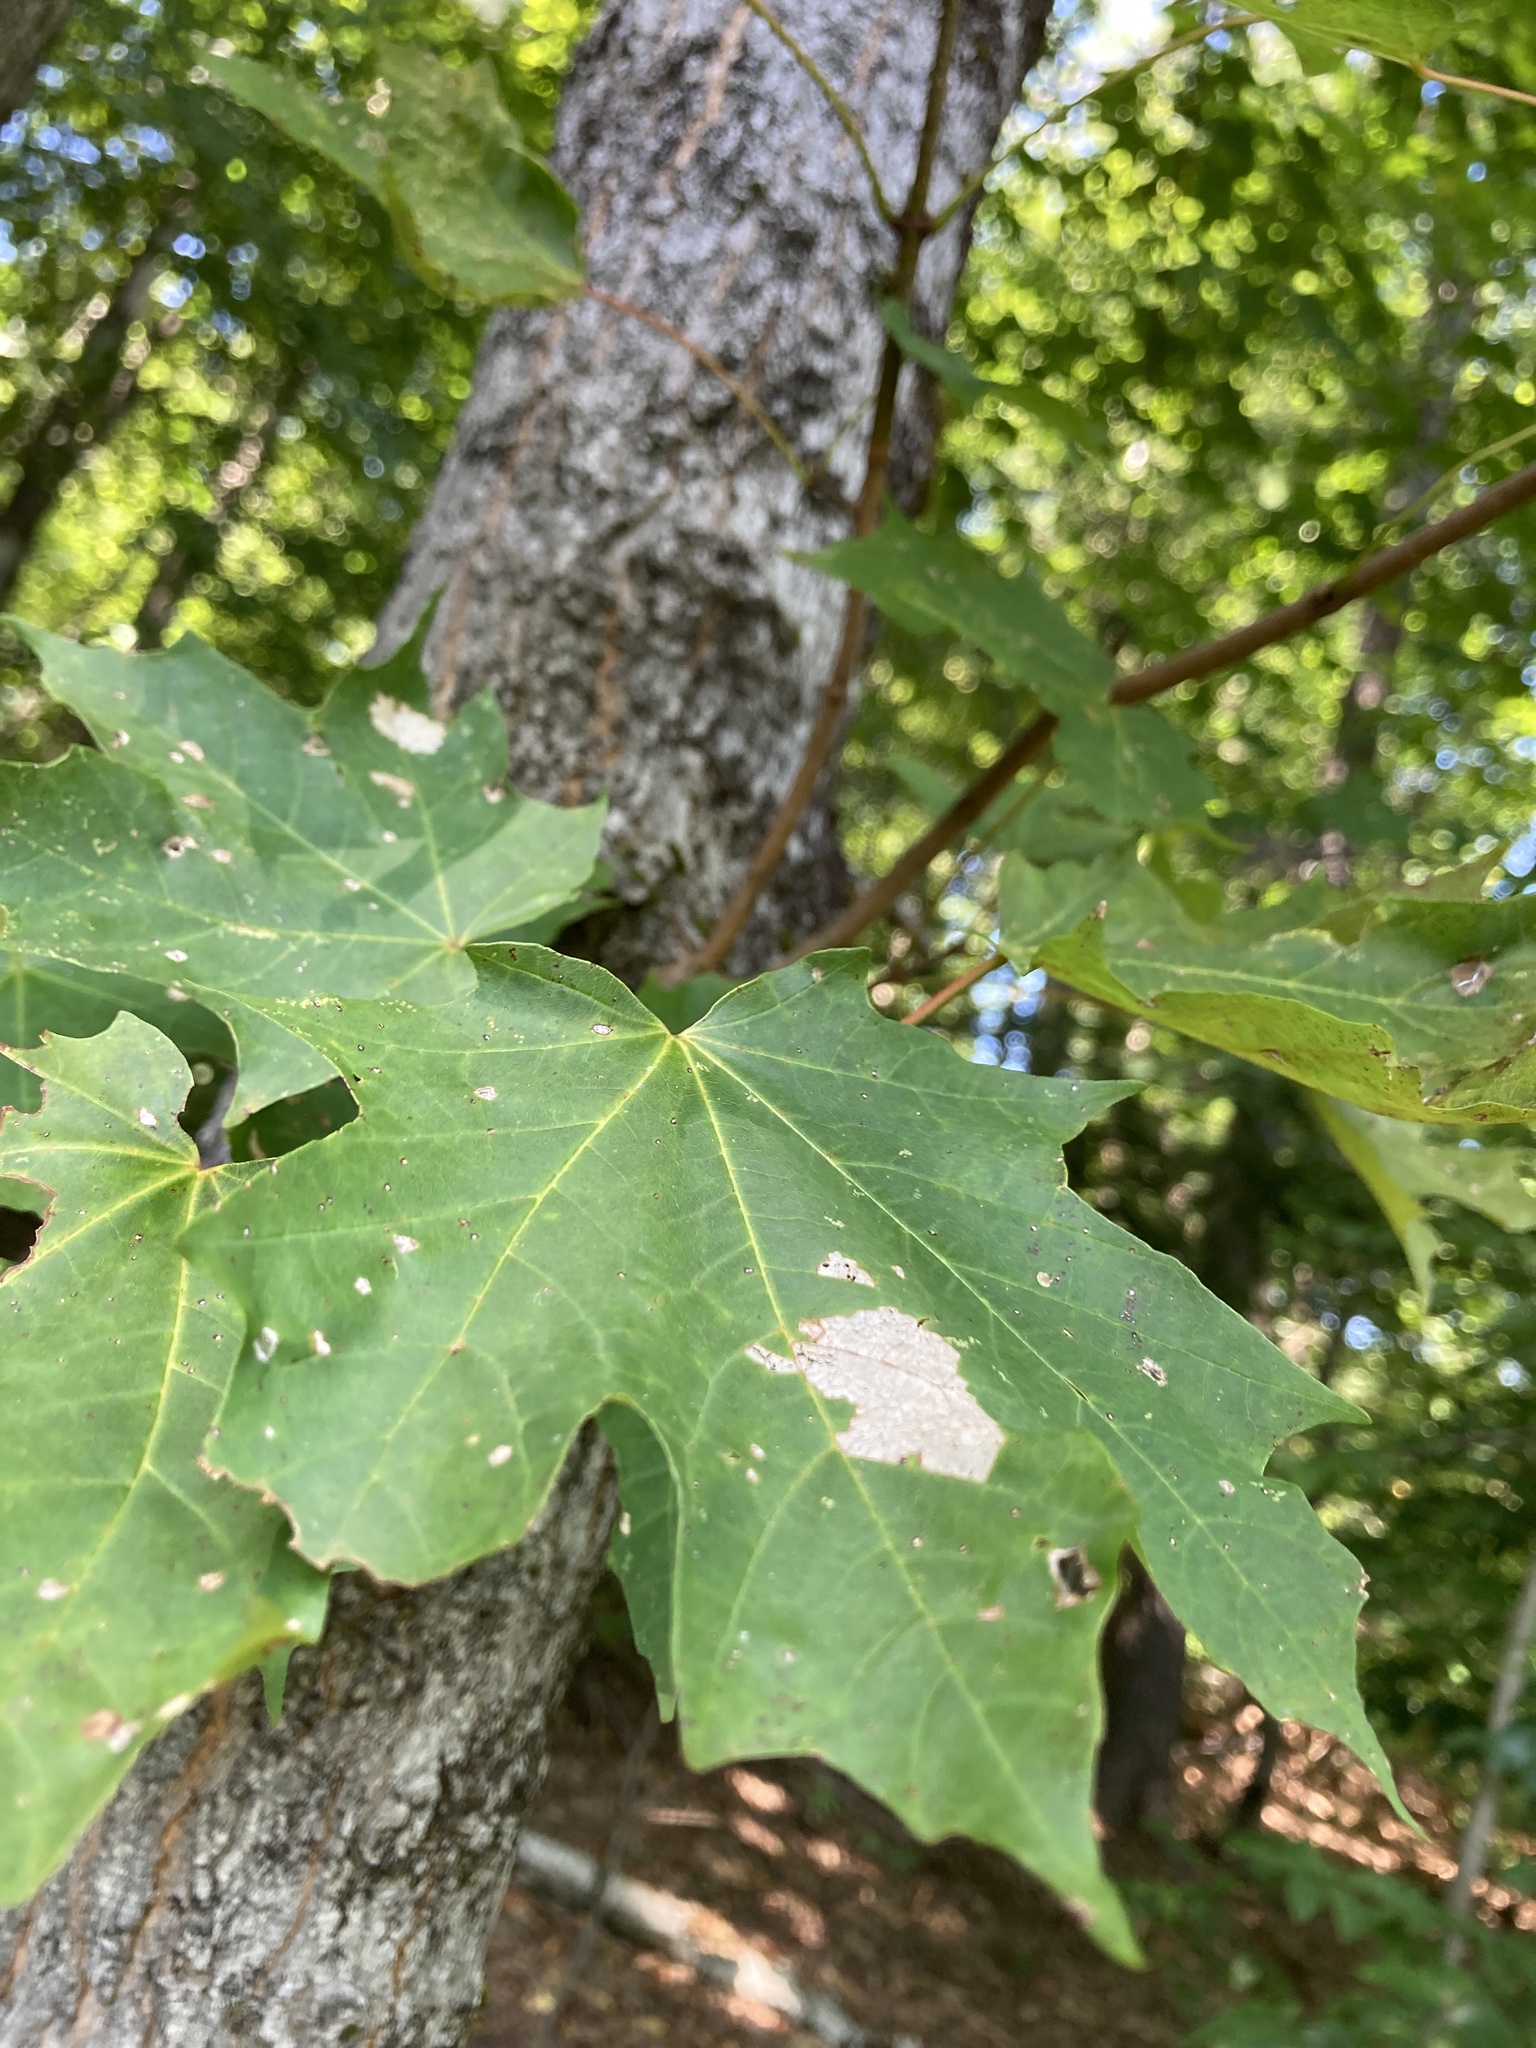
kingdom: Plantae
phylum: Tracheophyta
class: Magnoliopsida
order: Sapindales
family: Sapindaceae
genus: Acer
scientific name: Acer saccharum
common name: Sugar maple
